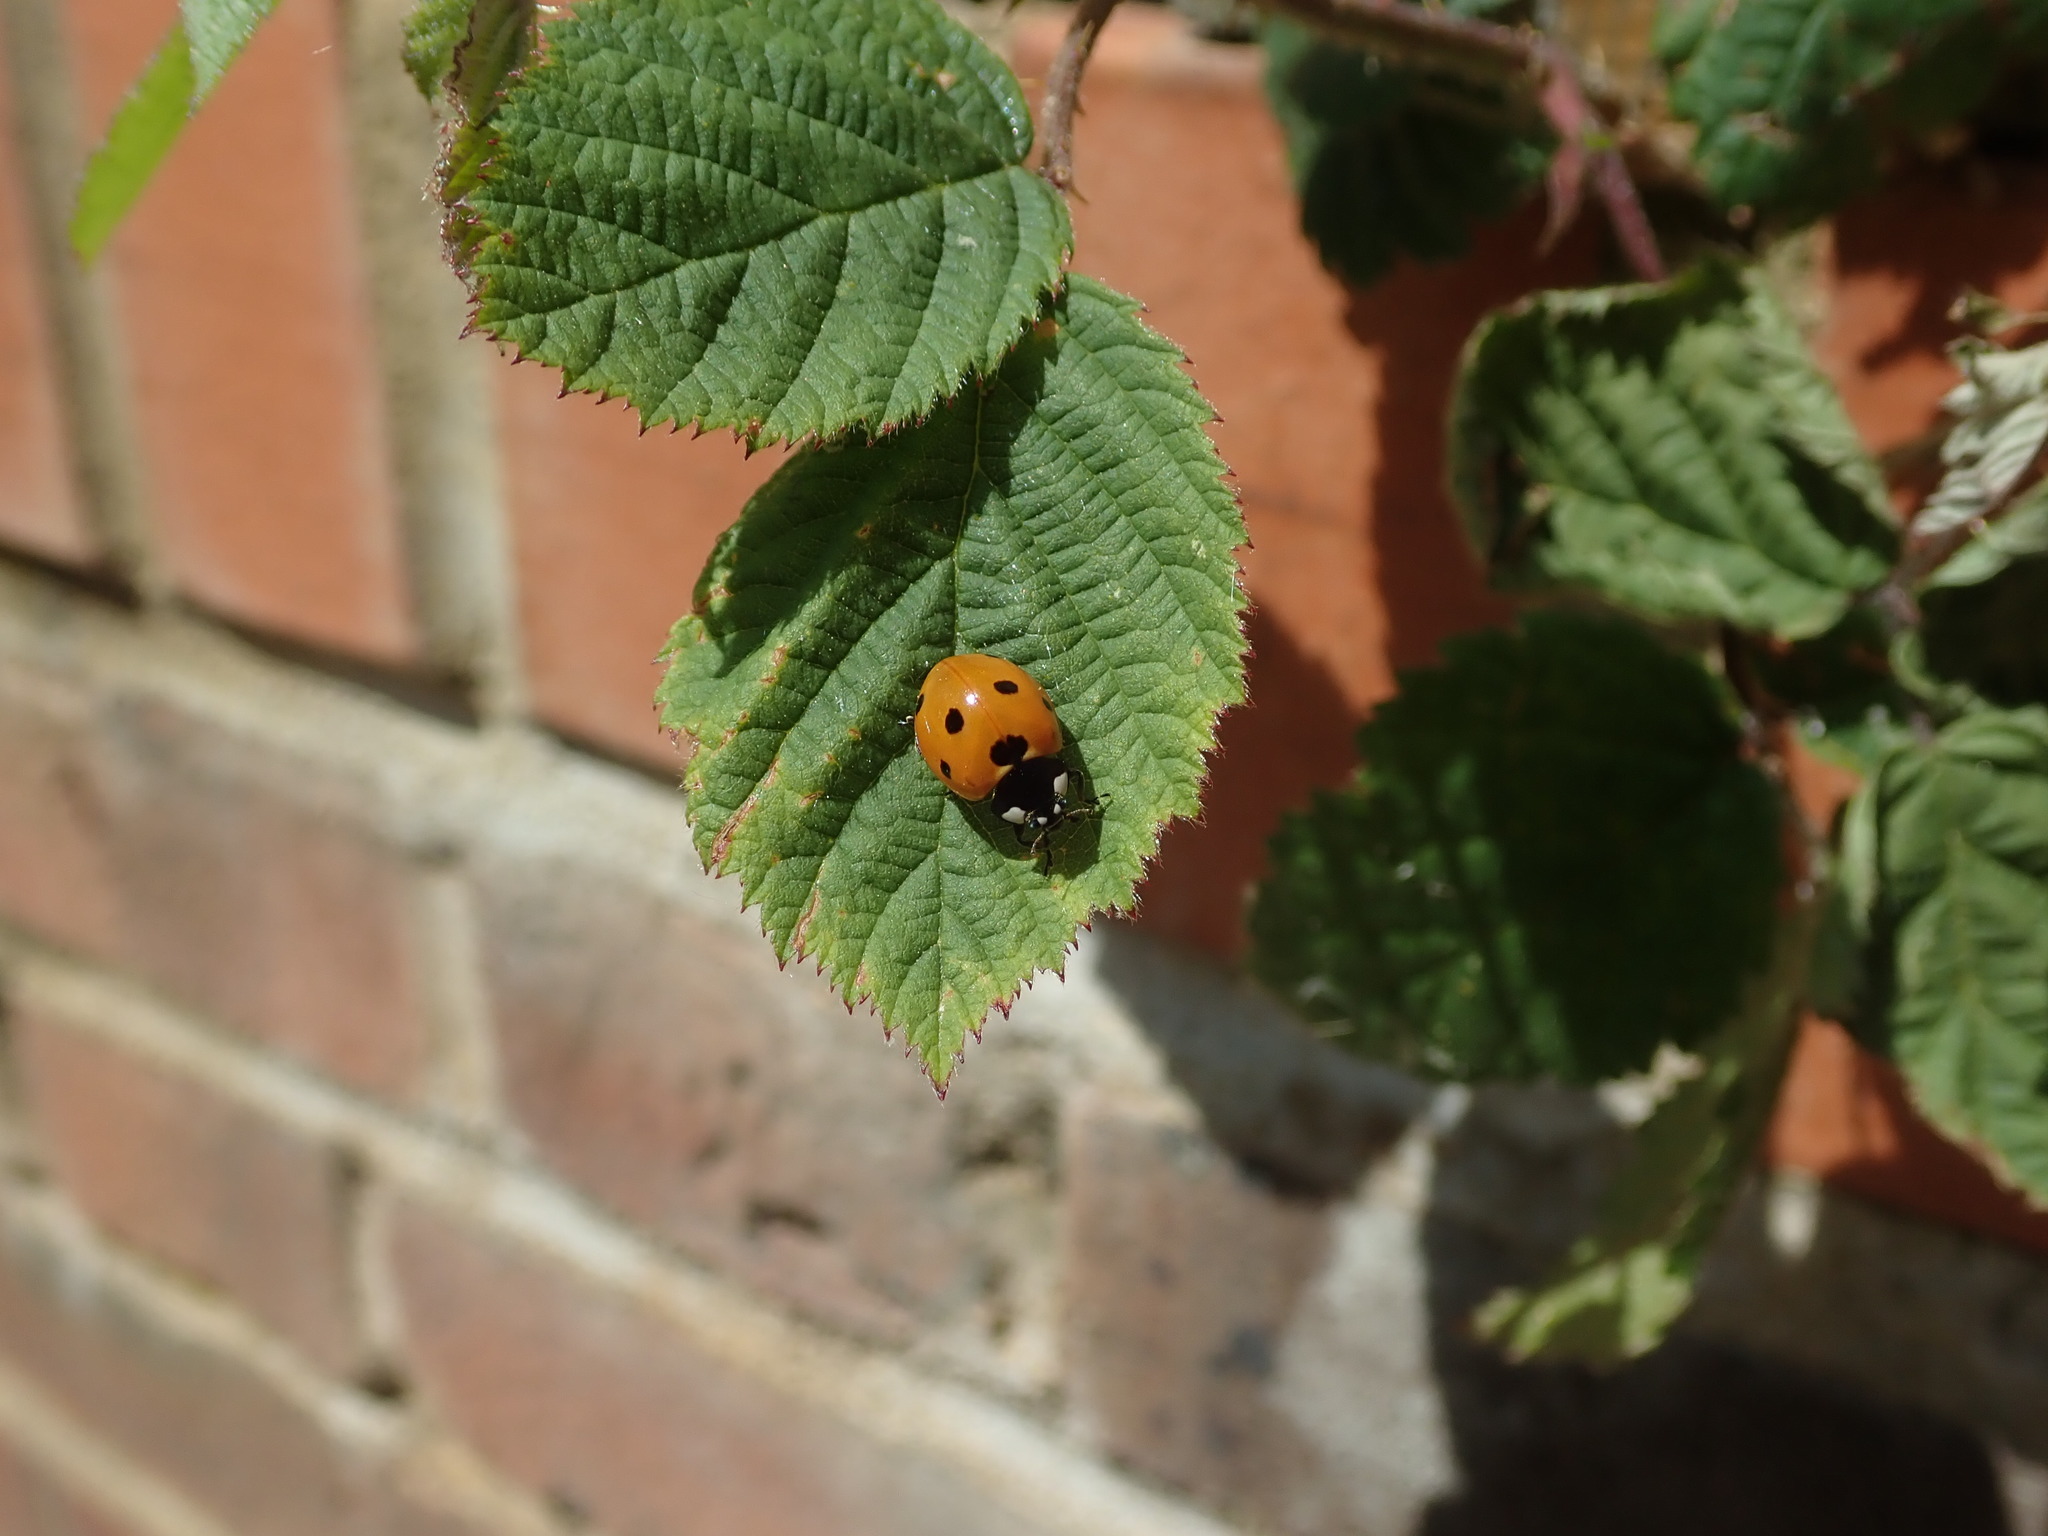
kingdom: Animalia
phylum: Arthropoda
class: Insecta
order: Coleoptera
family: Coccinellidae
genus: Coccinella
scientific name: Coccinella septempunctata
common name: Sevenspotted lady beetle
